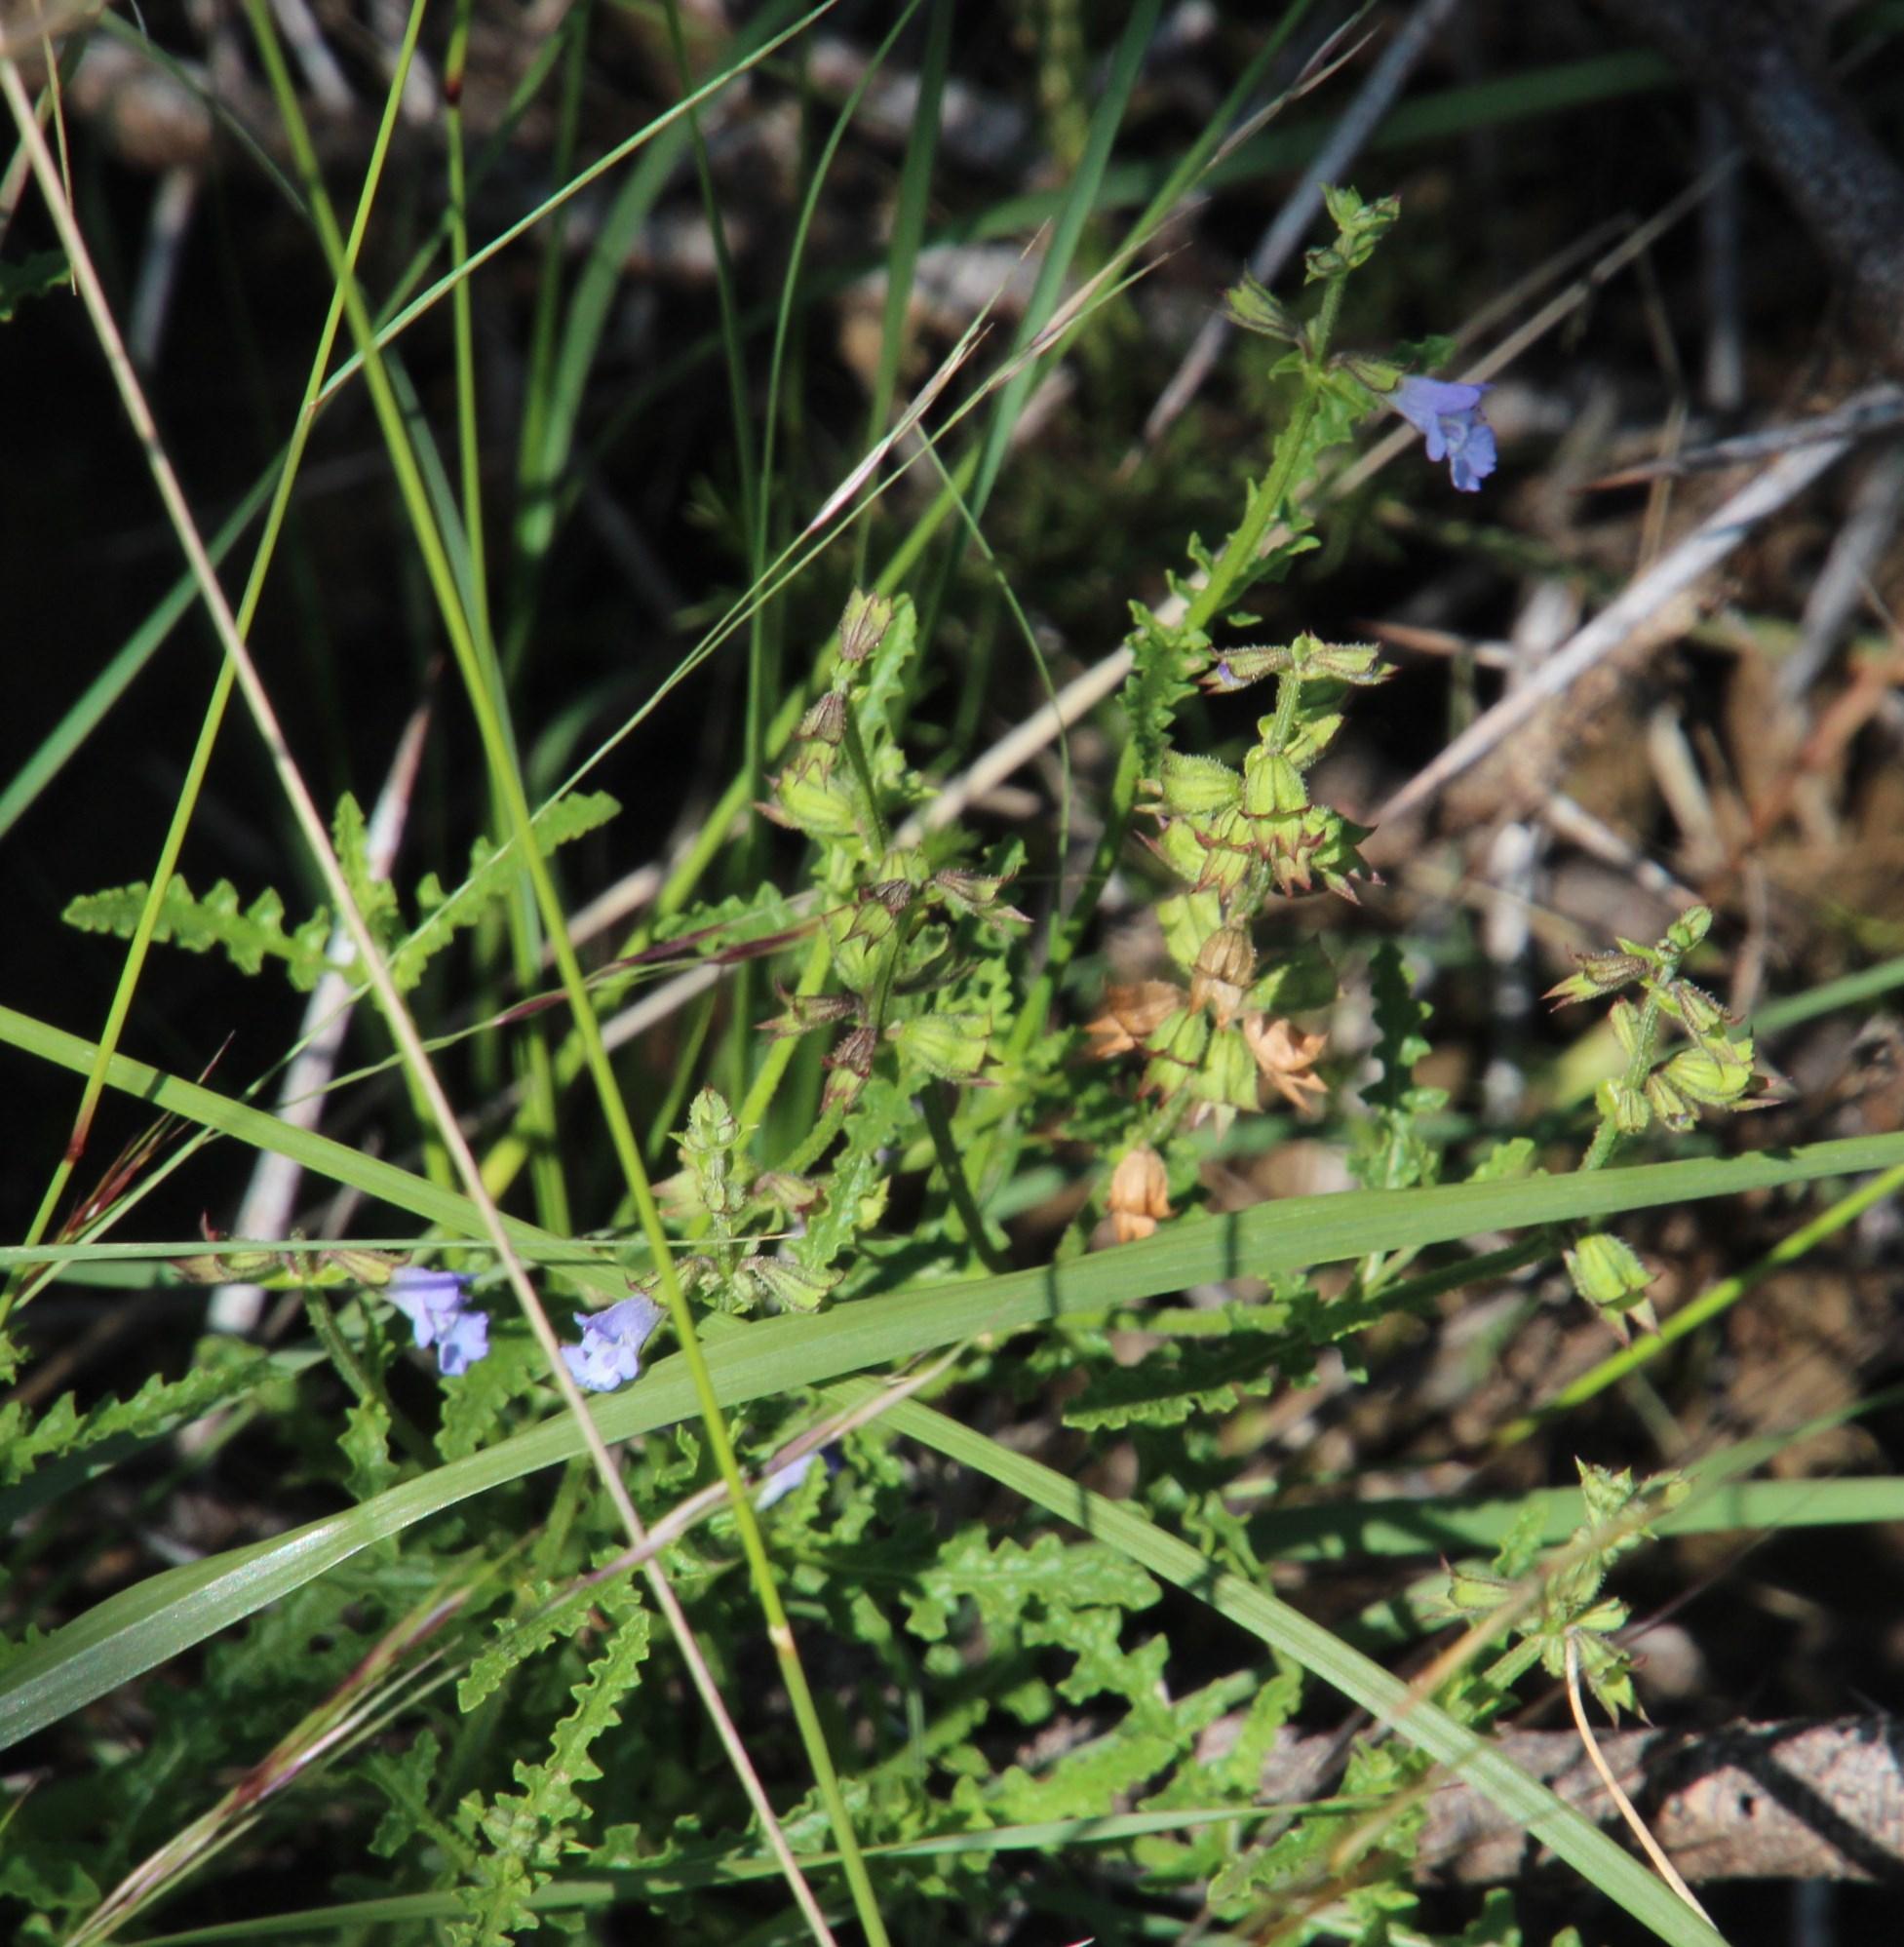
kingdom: Plantae
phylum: Tracheophyta
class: Magnoliopsida
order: Lamiales
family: Lamiaceae
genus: Salvia
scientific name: Salvia runcinata
